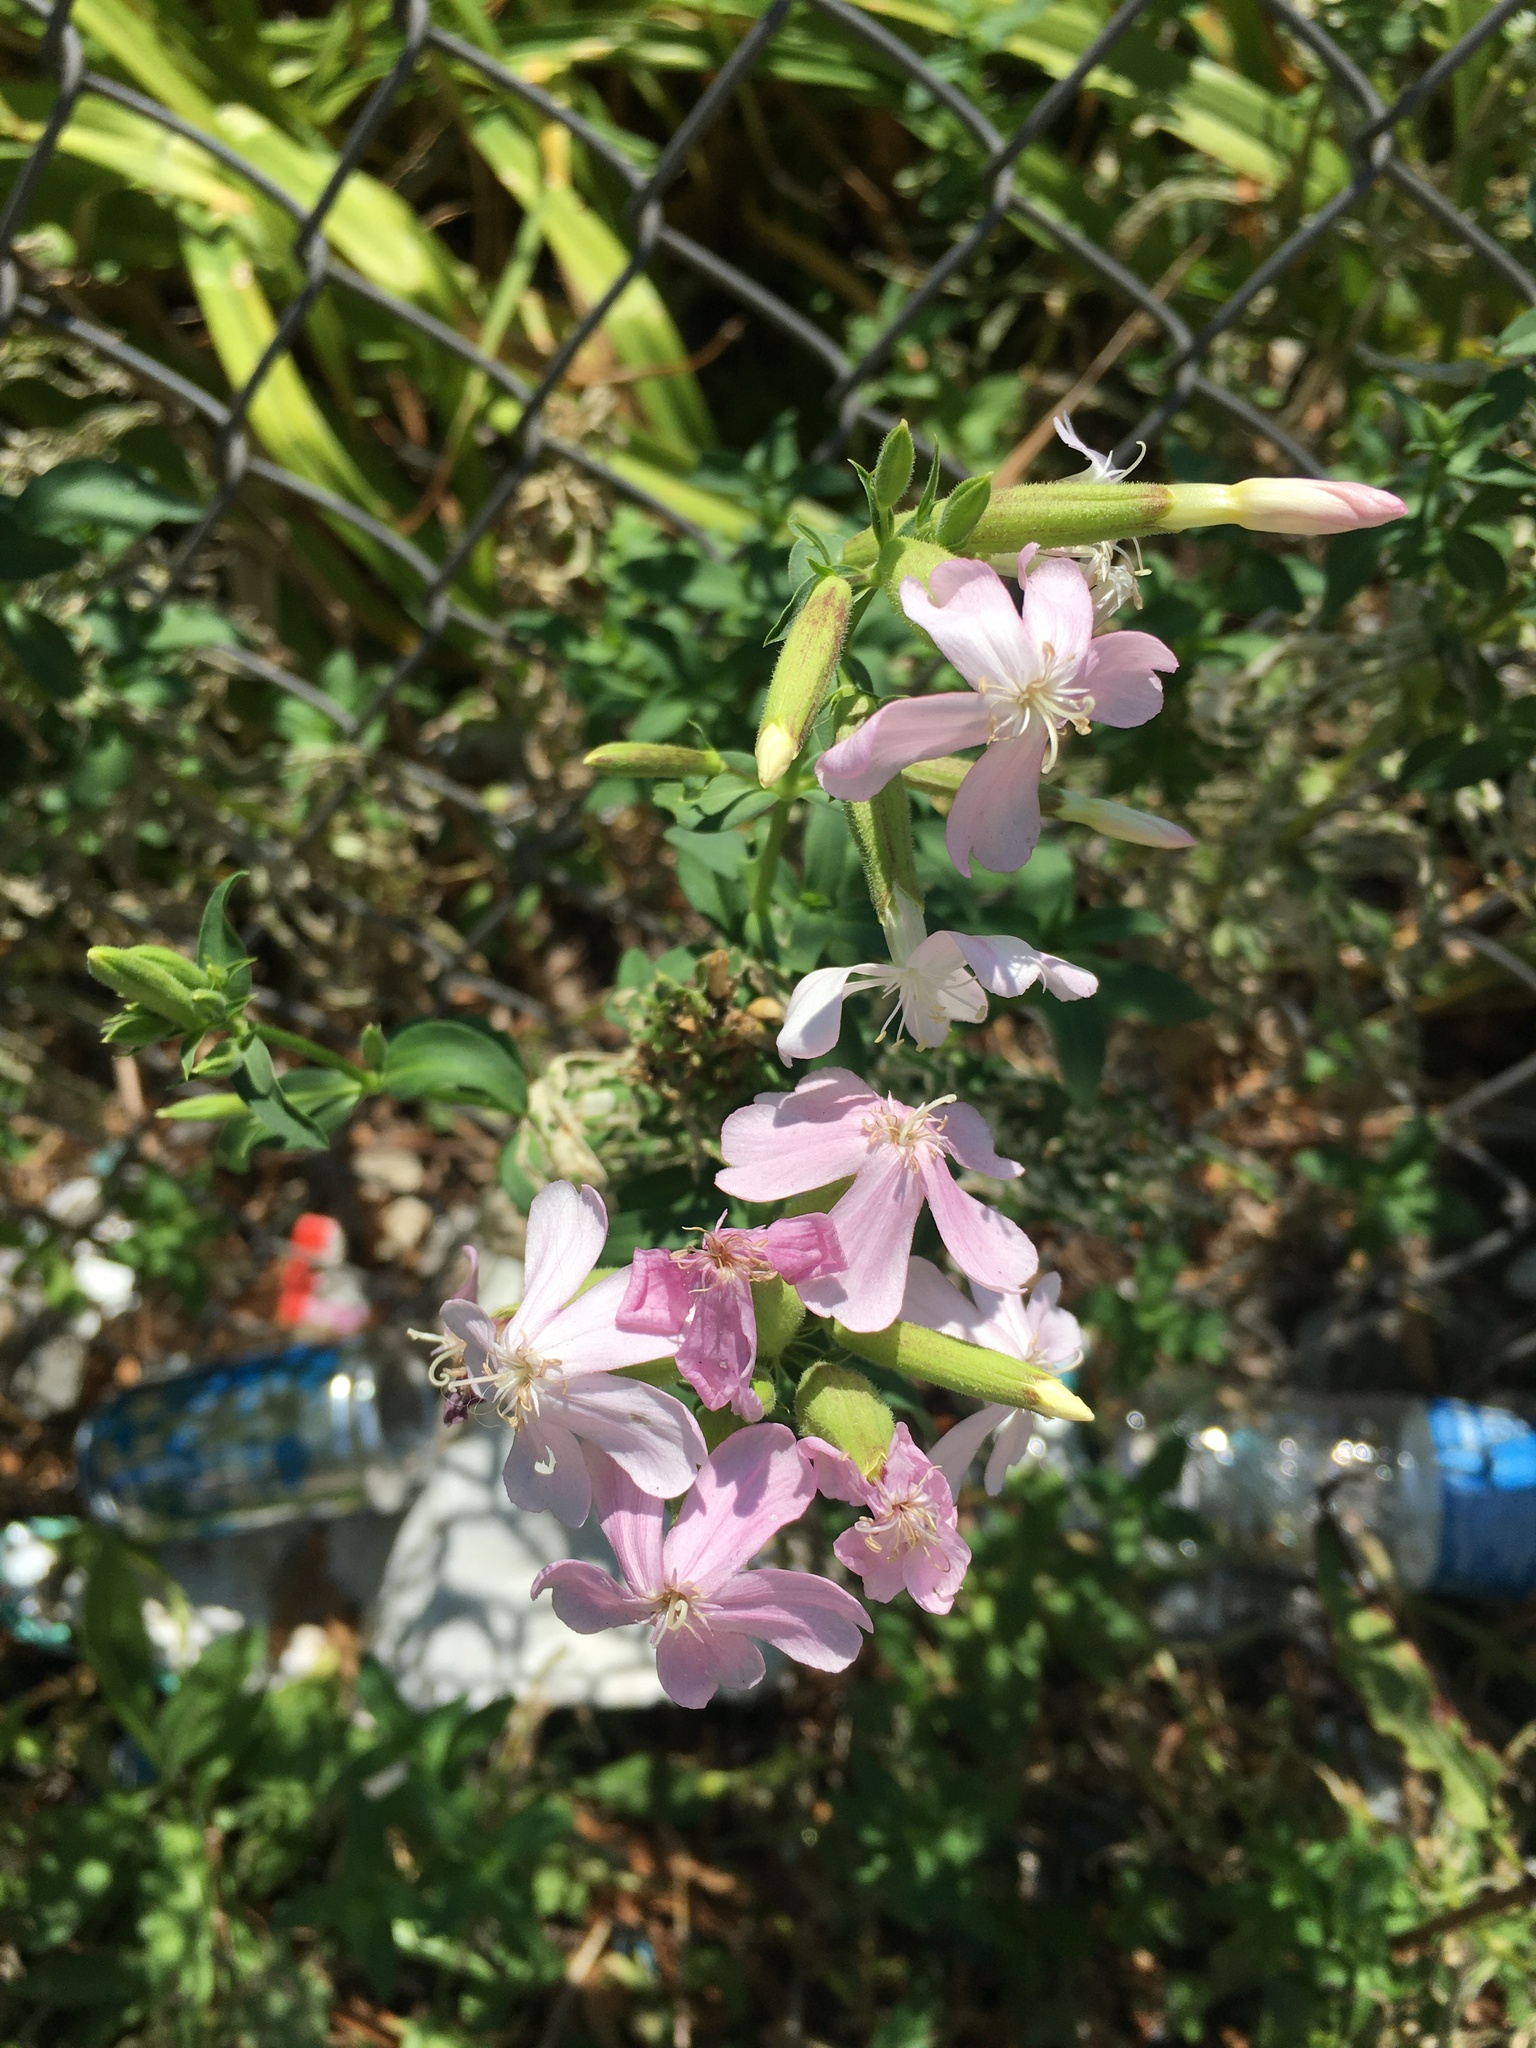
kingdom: Plantae
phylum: Tracheophyta
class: Magnoliopsida
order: Caryophyllales
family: Caryophyllaceae
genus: Saponaria
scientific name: Saponaria officinalis
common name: Soapwort
